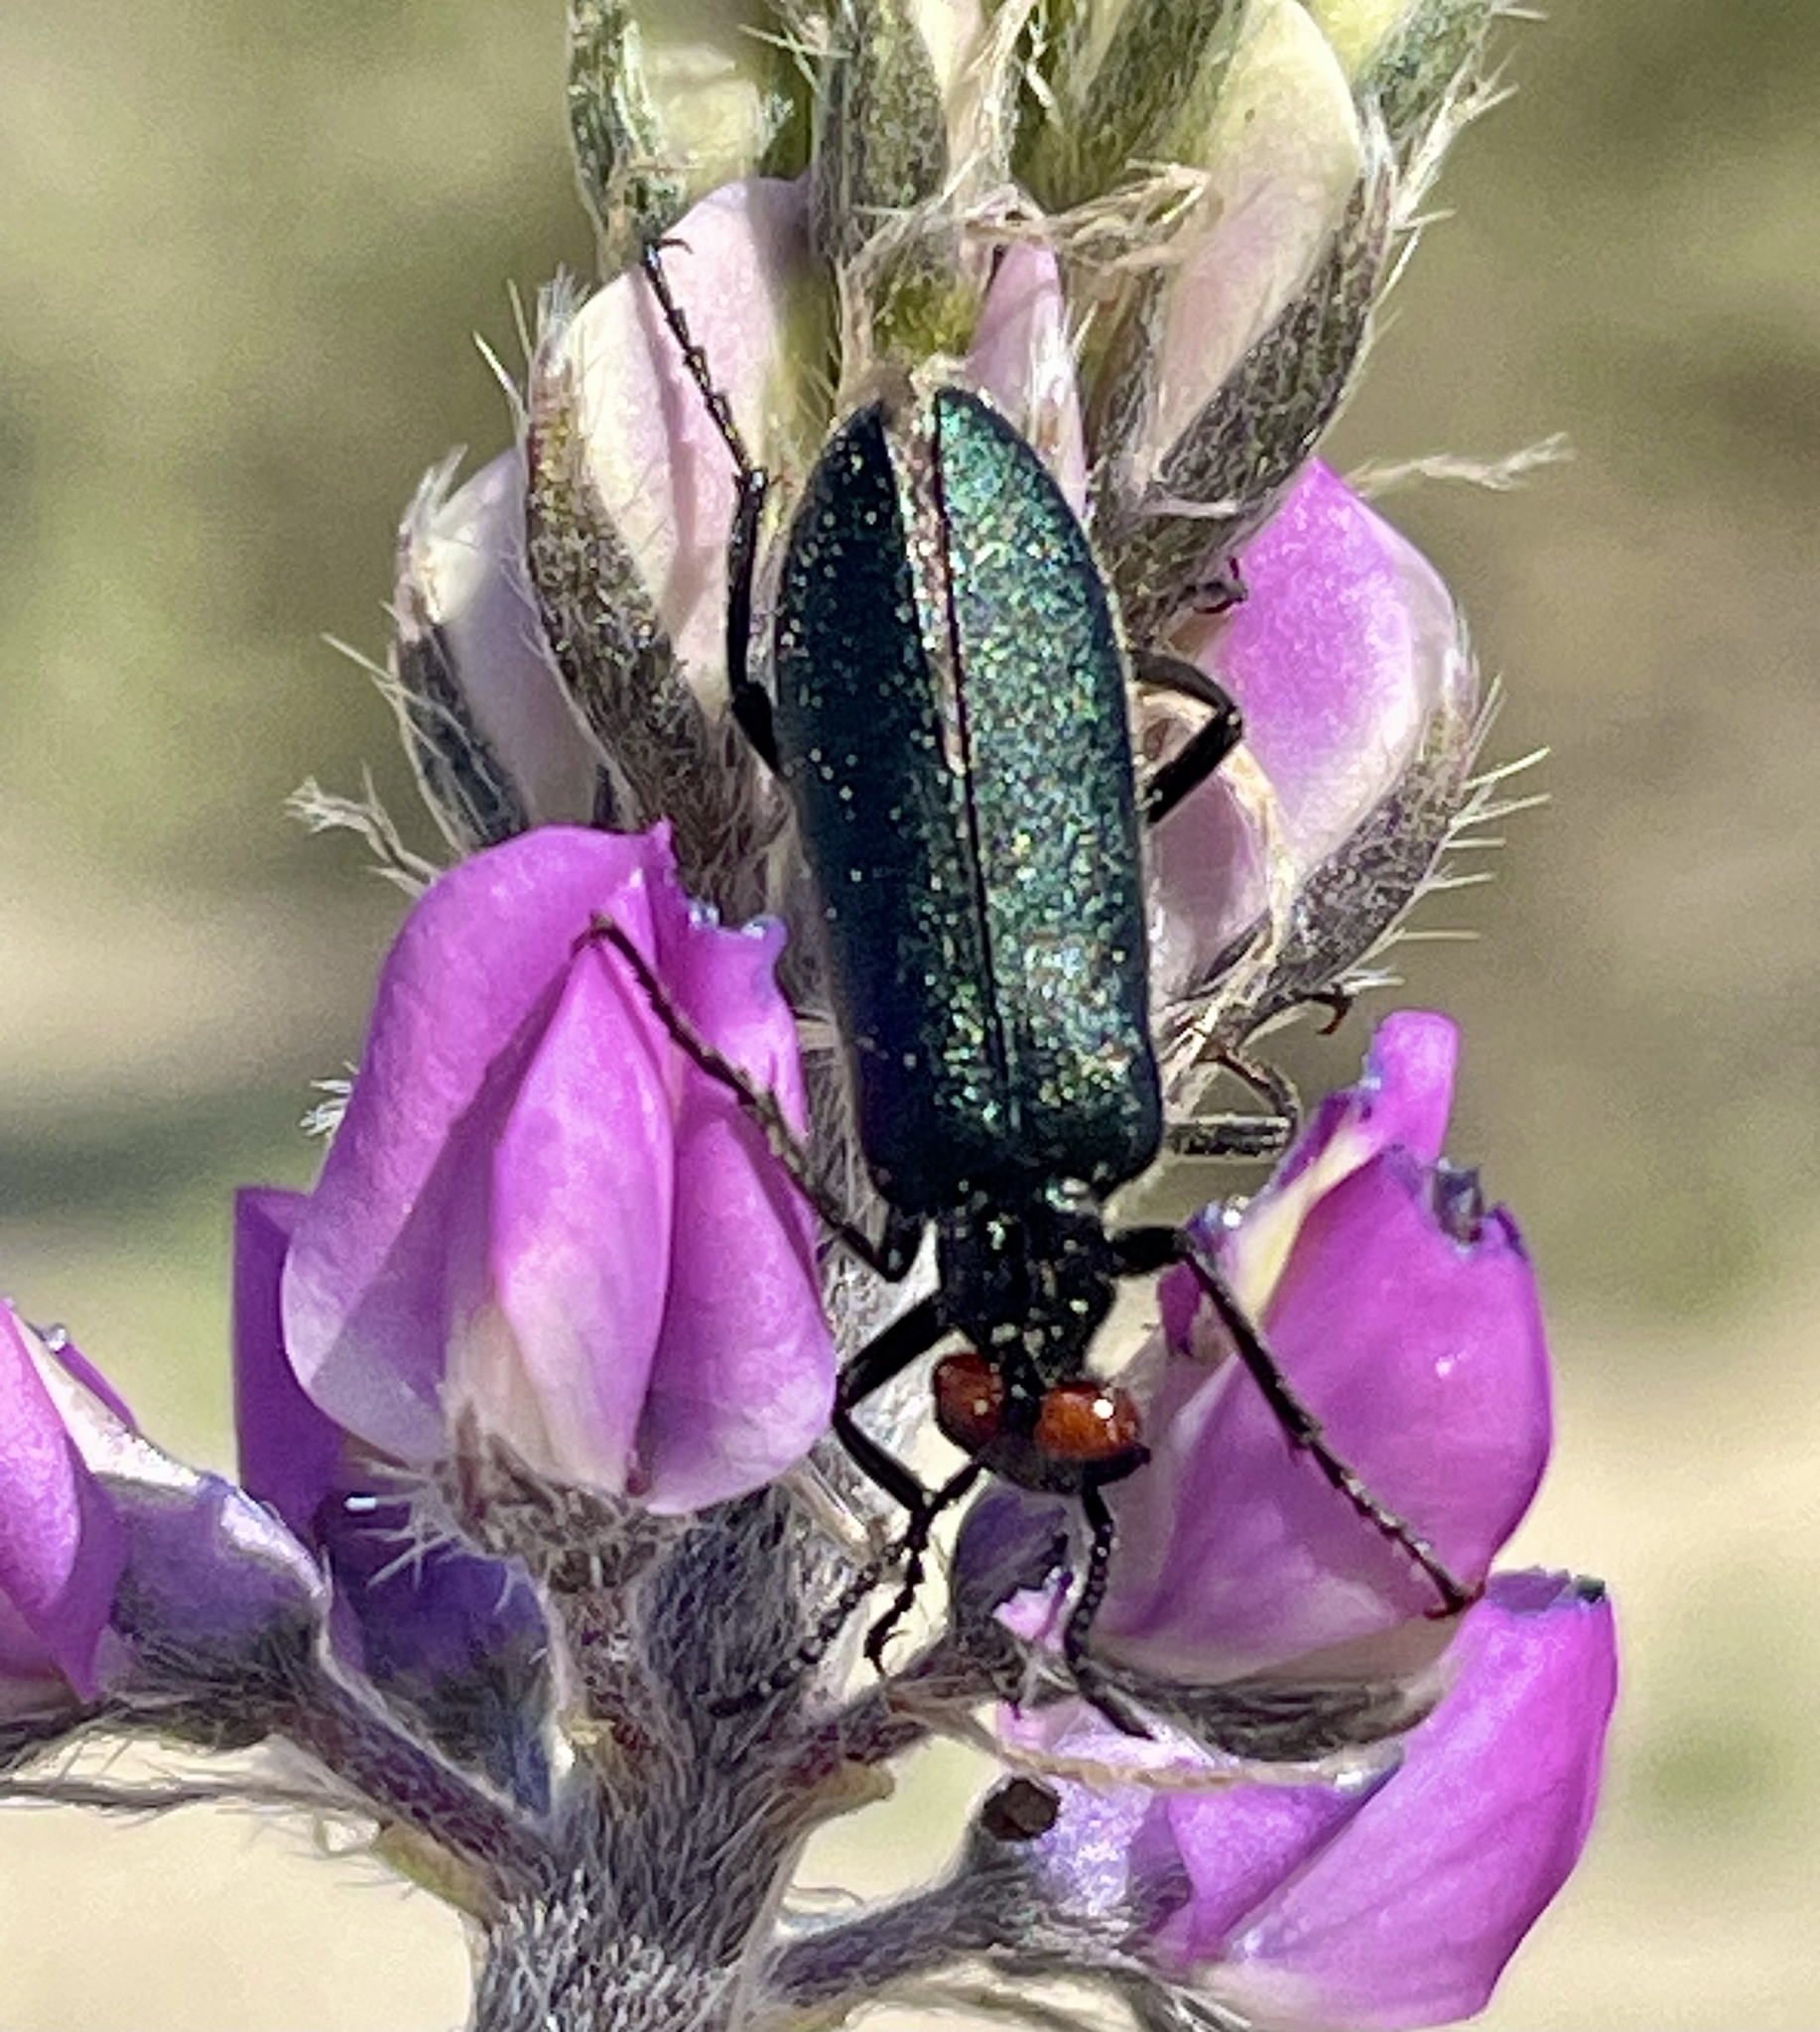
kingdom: Animalia
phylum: Arthropoda
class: Insecta
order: Coleoptera
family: Meloidae
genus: Lytta
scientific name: Lytta auriculata
